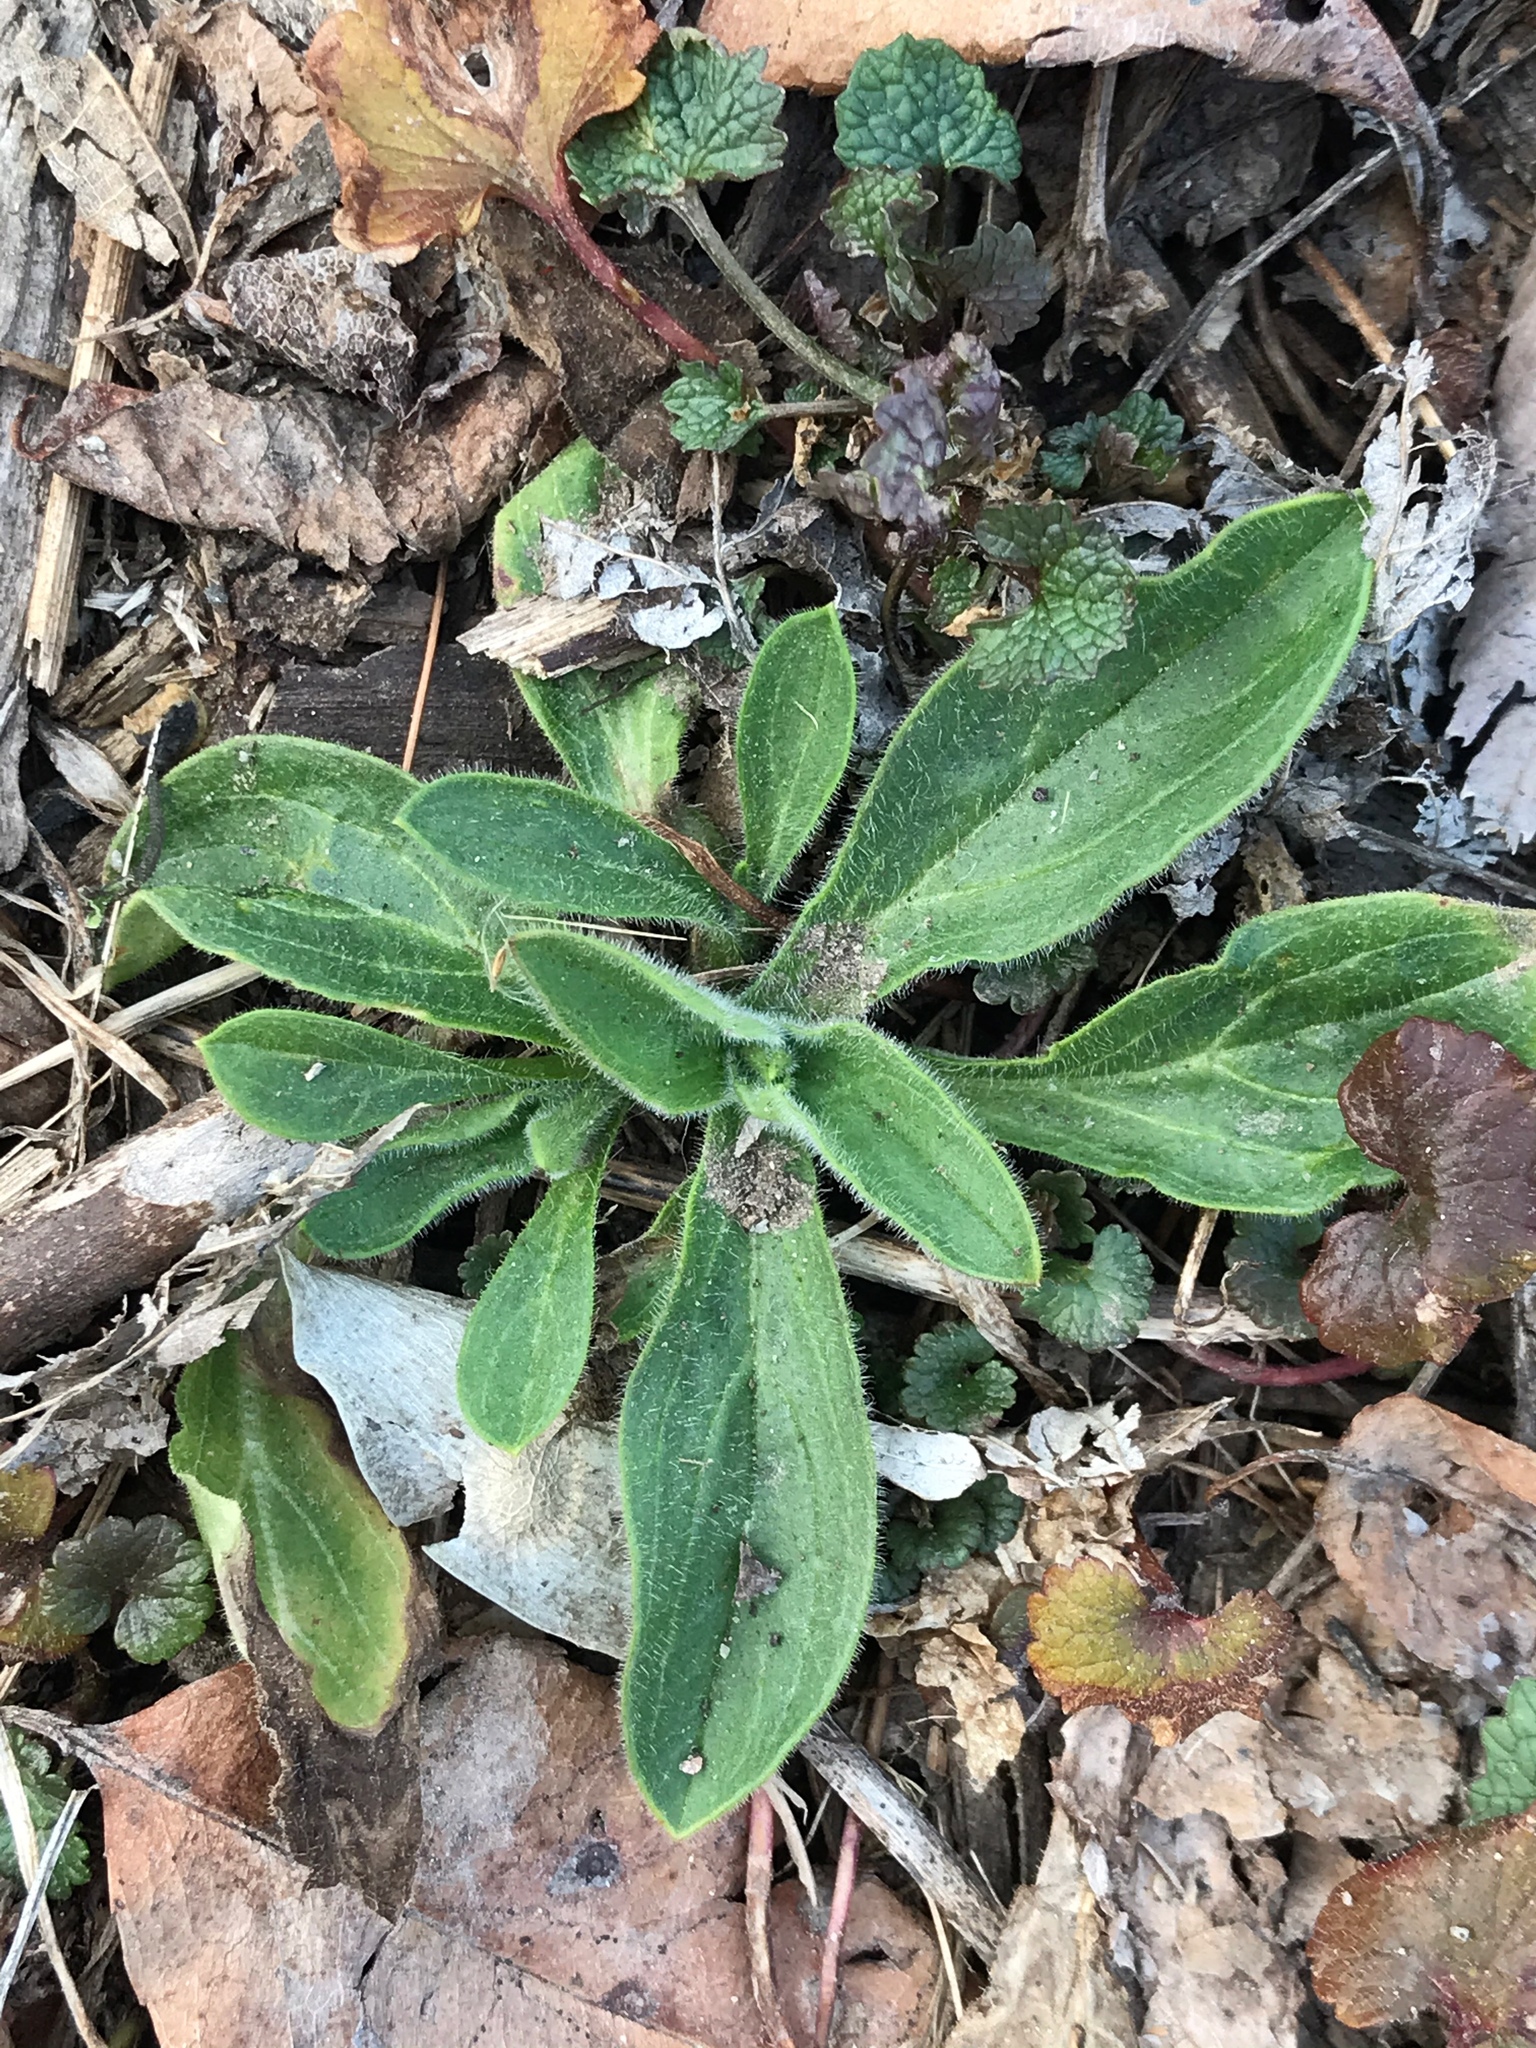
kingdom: Plantae
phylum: Tracheophyta
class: Magnoliopsida
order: Caryophyllales
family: Caryophyllaceae
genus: Silene
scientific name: Silene latifolia
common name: White campion
